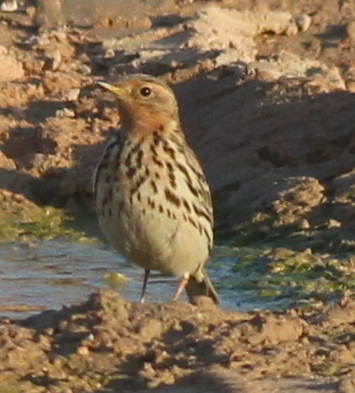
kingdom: Animalia
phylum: Chordata
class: Aves
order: Passeriformes
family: Motacillidae
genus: Anthus
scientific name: Anthus cervinus
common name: Red-throated pipit
